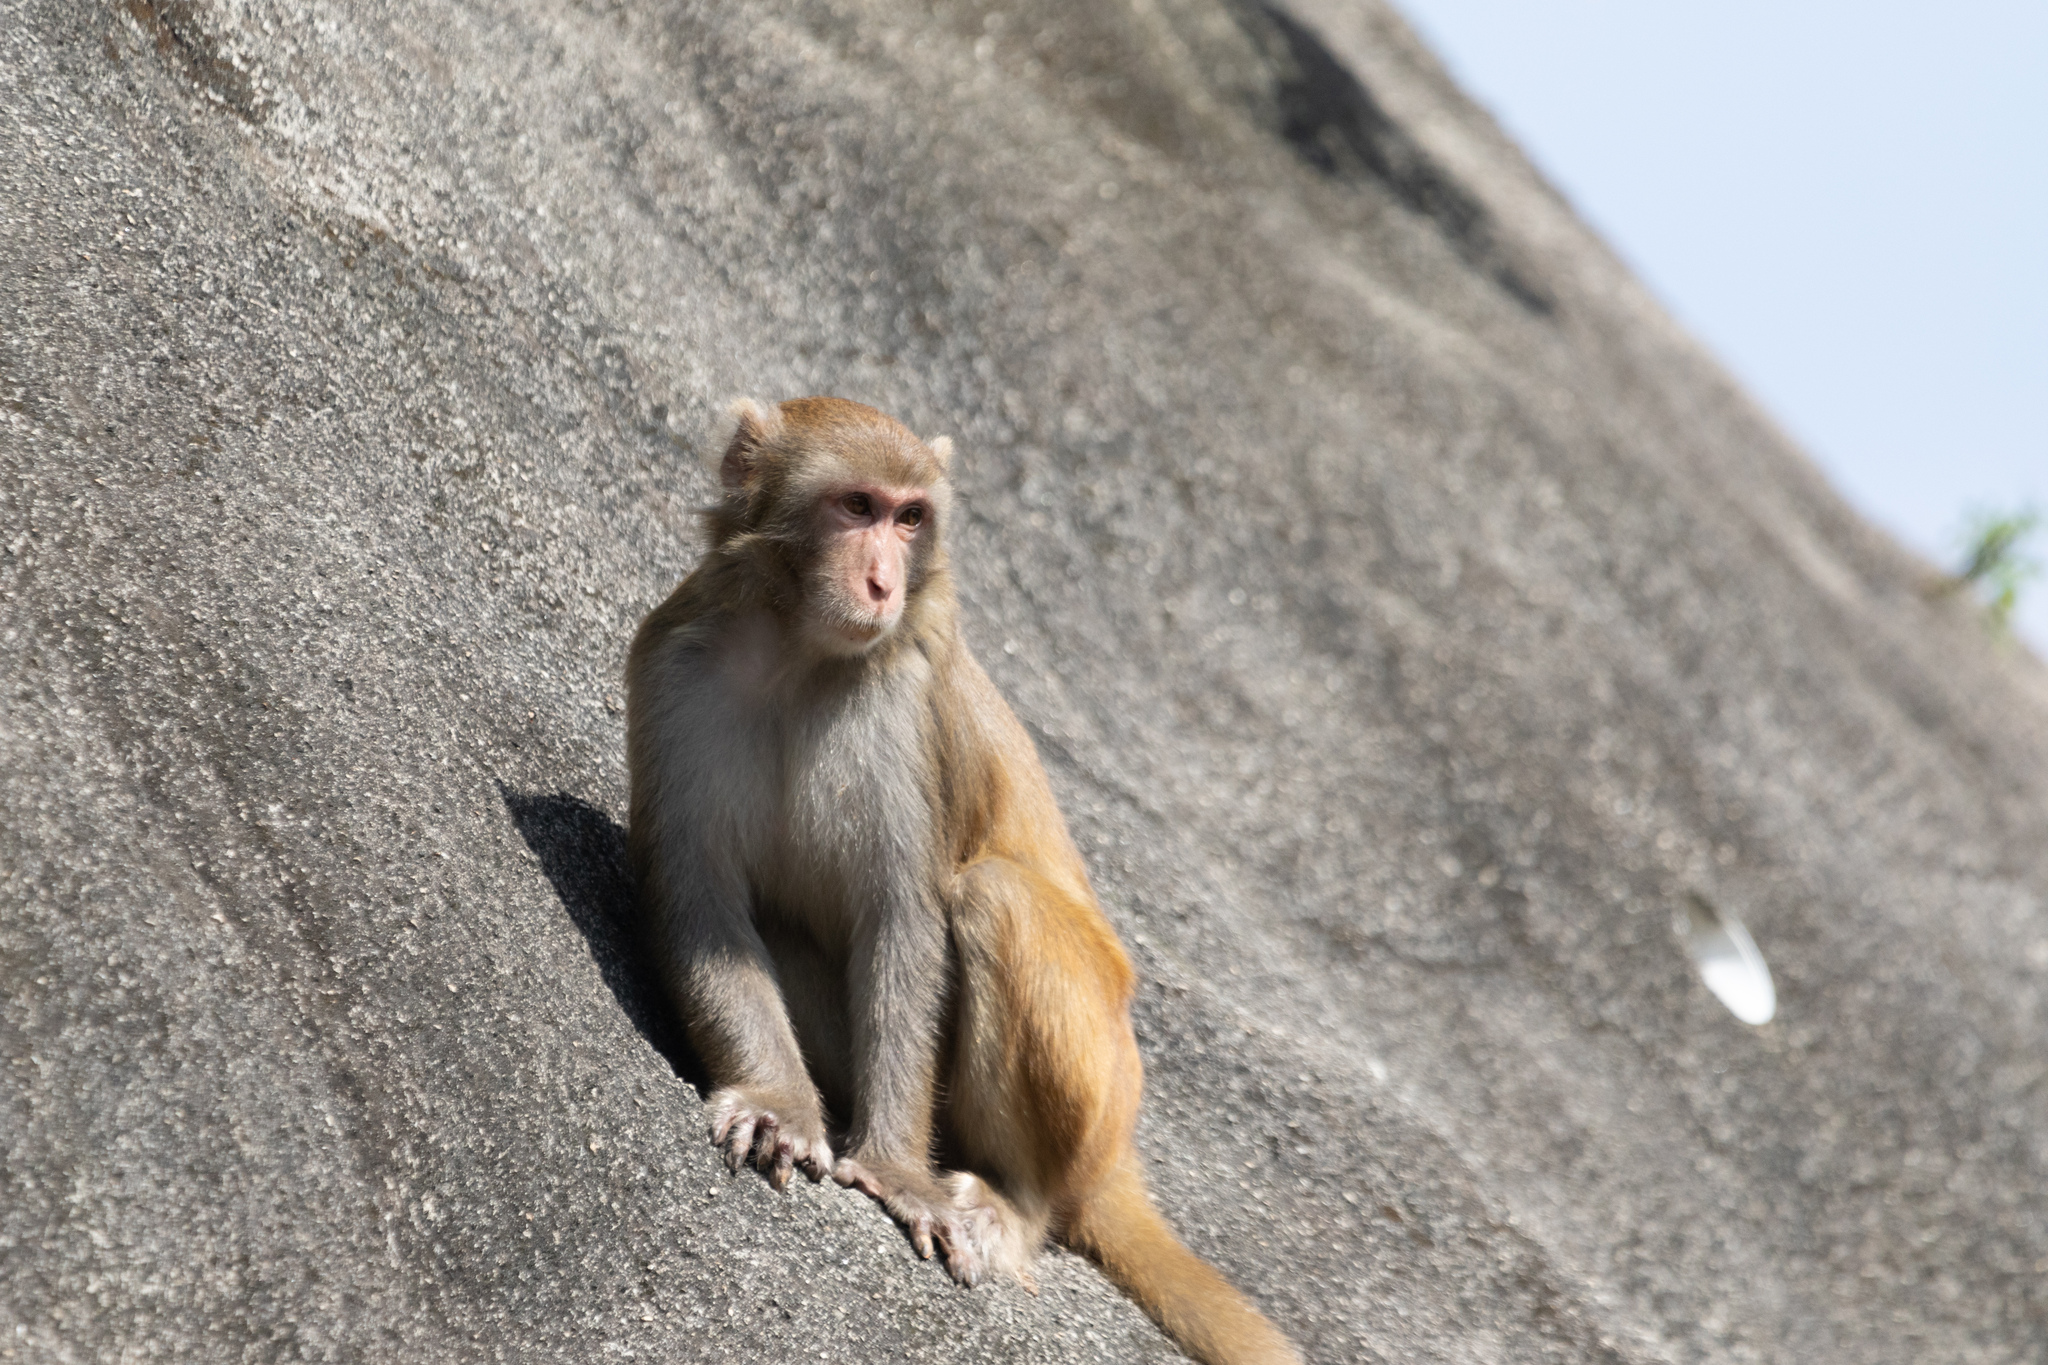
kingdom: Animalia
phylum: Chordata
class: Mammalia
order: Primates
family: Cercopithecidae
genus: Macaca
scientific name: Macaca mulatta
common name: Rhesus monkey
